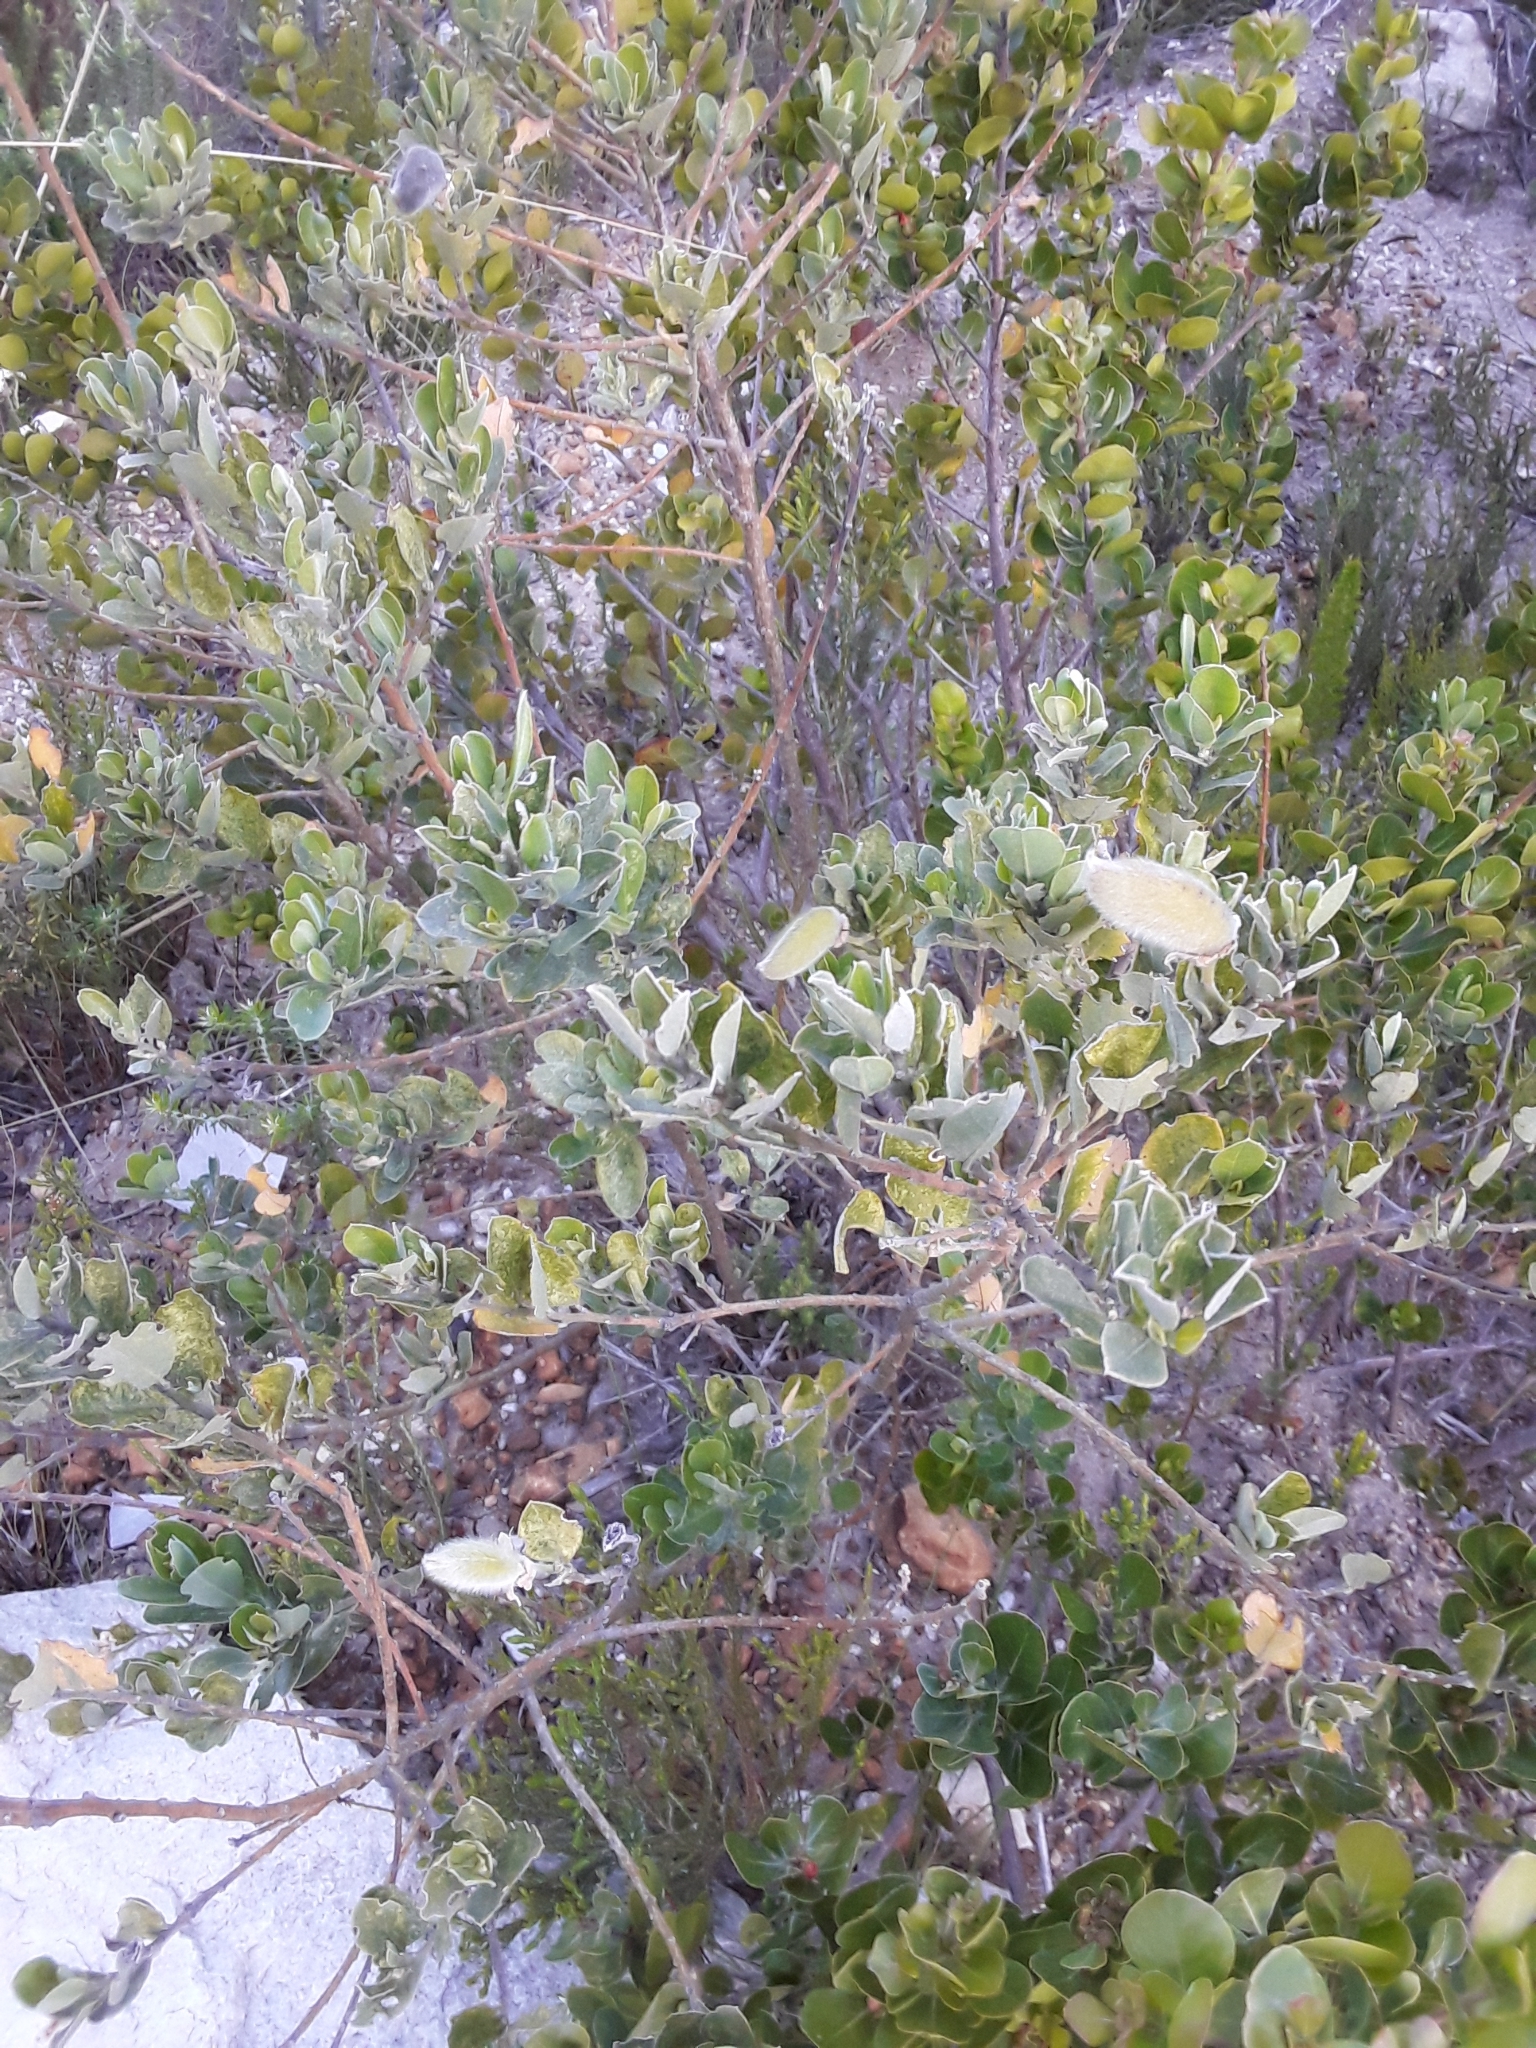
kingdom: Plantae
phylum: Tracheophyta
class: Magnoliopsida
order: Fabales
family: Fabaceae
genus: Podalyria
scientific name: Podalyria calyptrata
